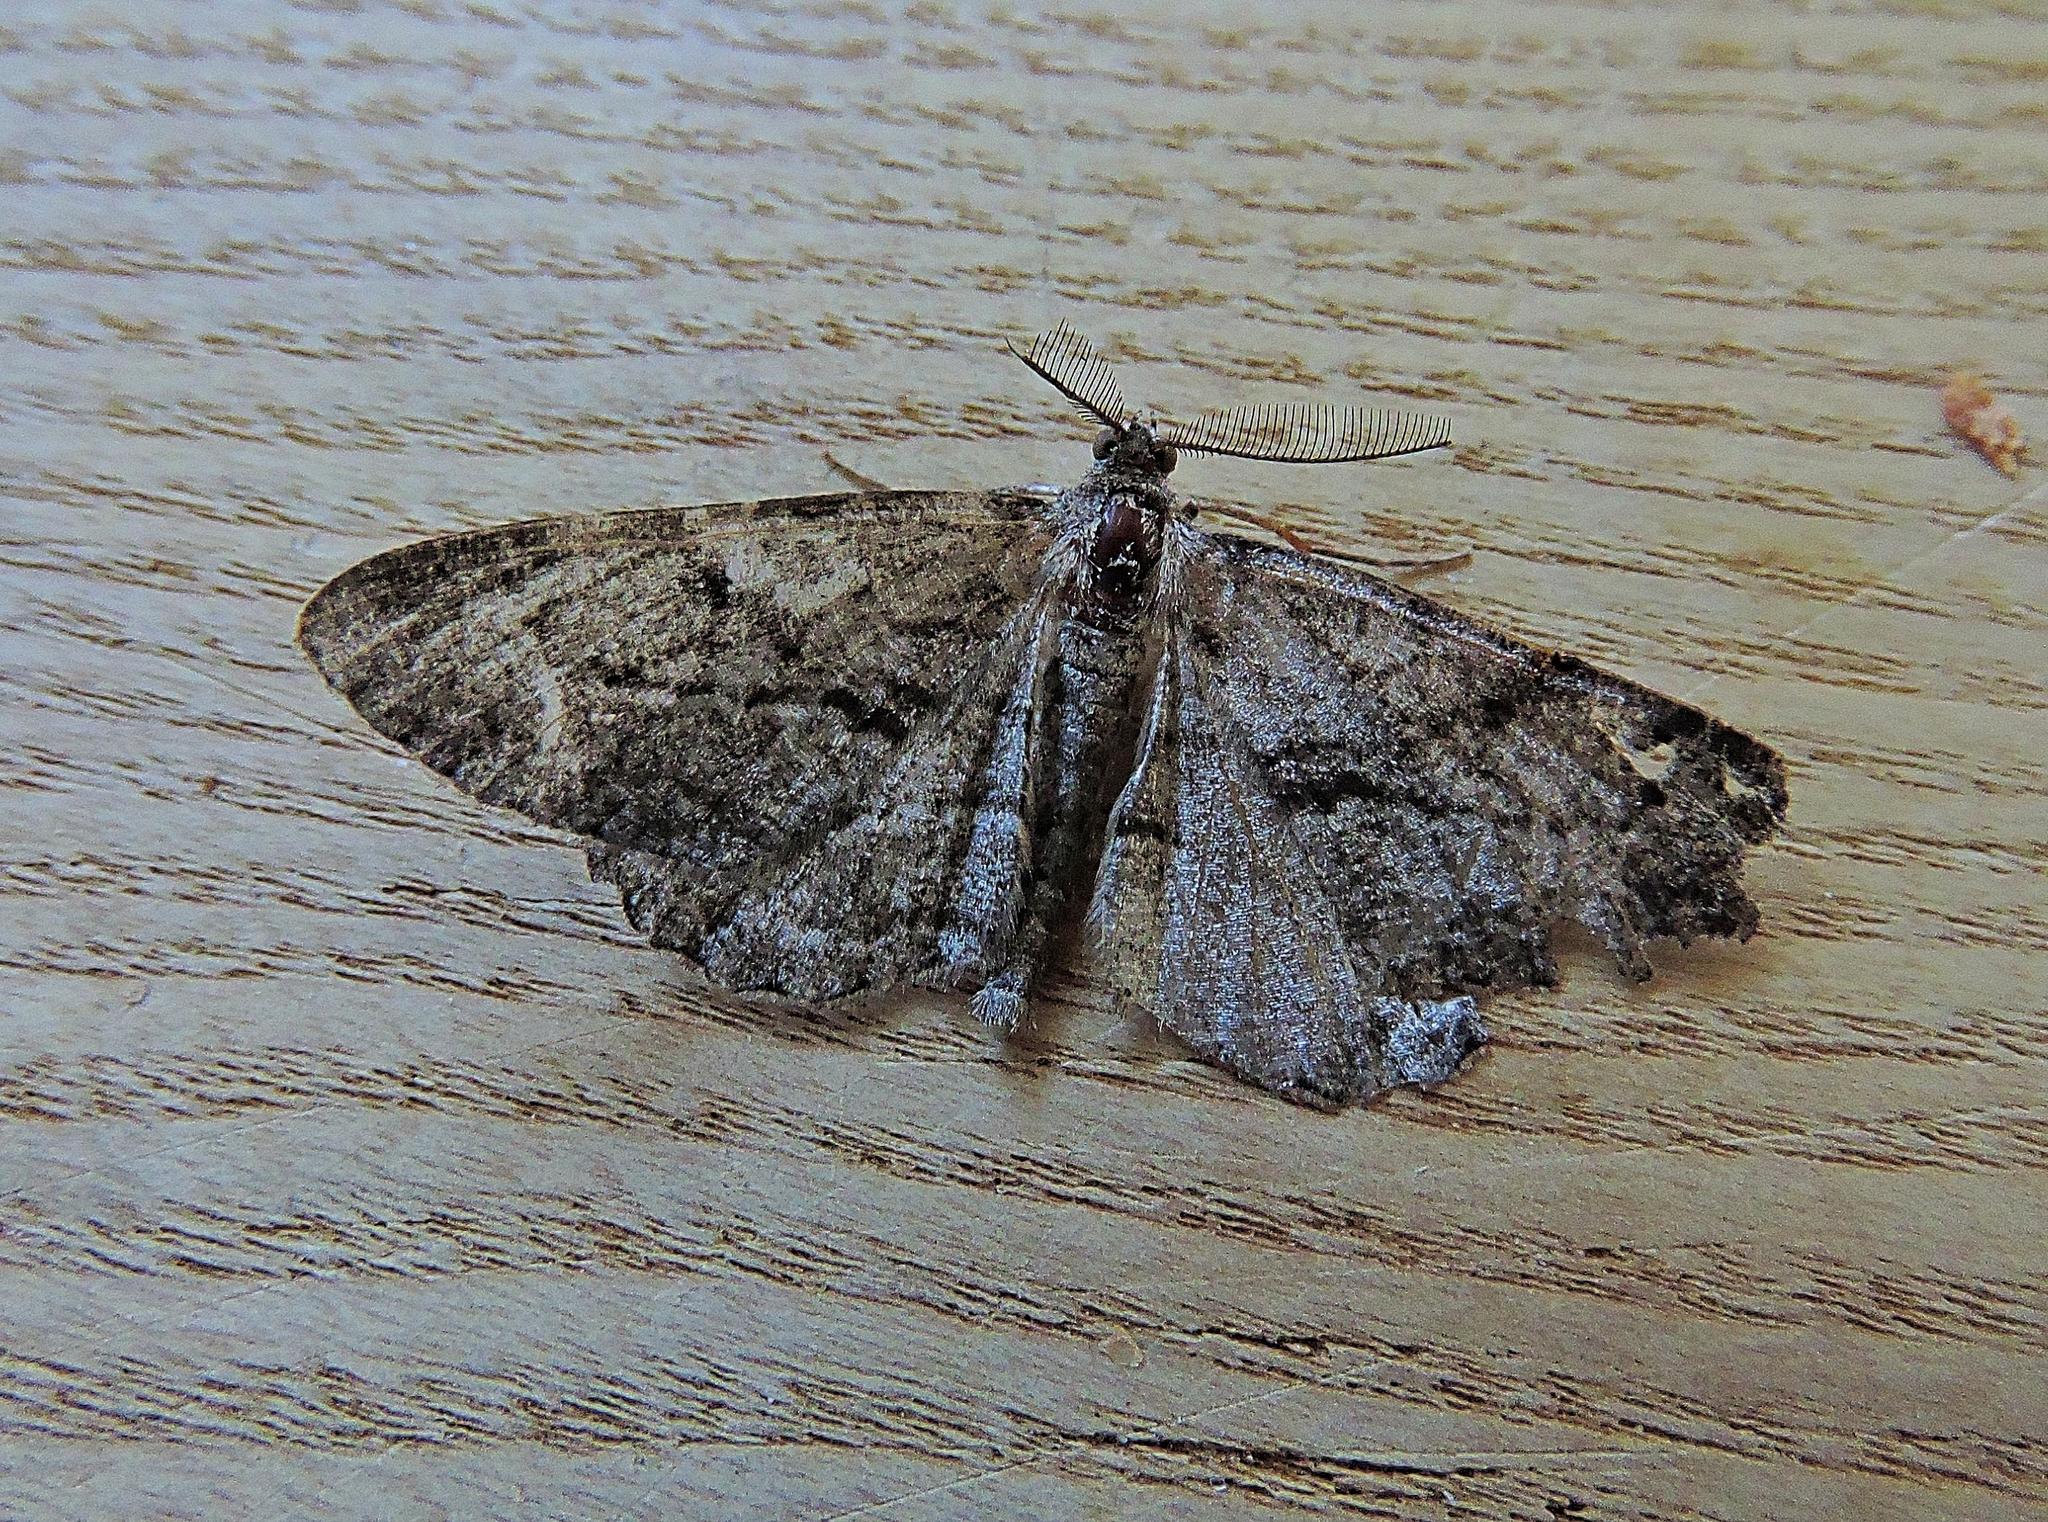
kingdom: Animalia
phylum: Arthropoda
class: Insecta
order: Lepidoptera
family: Geometridae
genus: Peribatodes
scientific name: Peribatodes rhomboidaria
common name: Willow beauty
